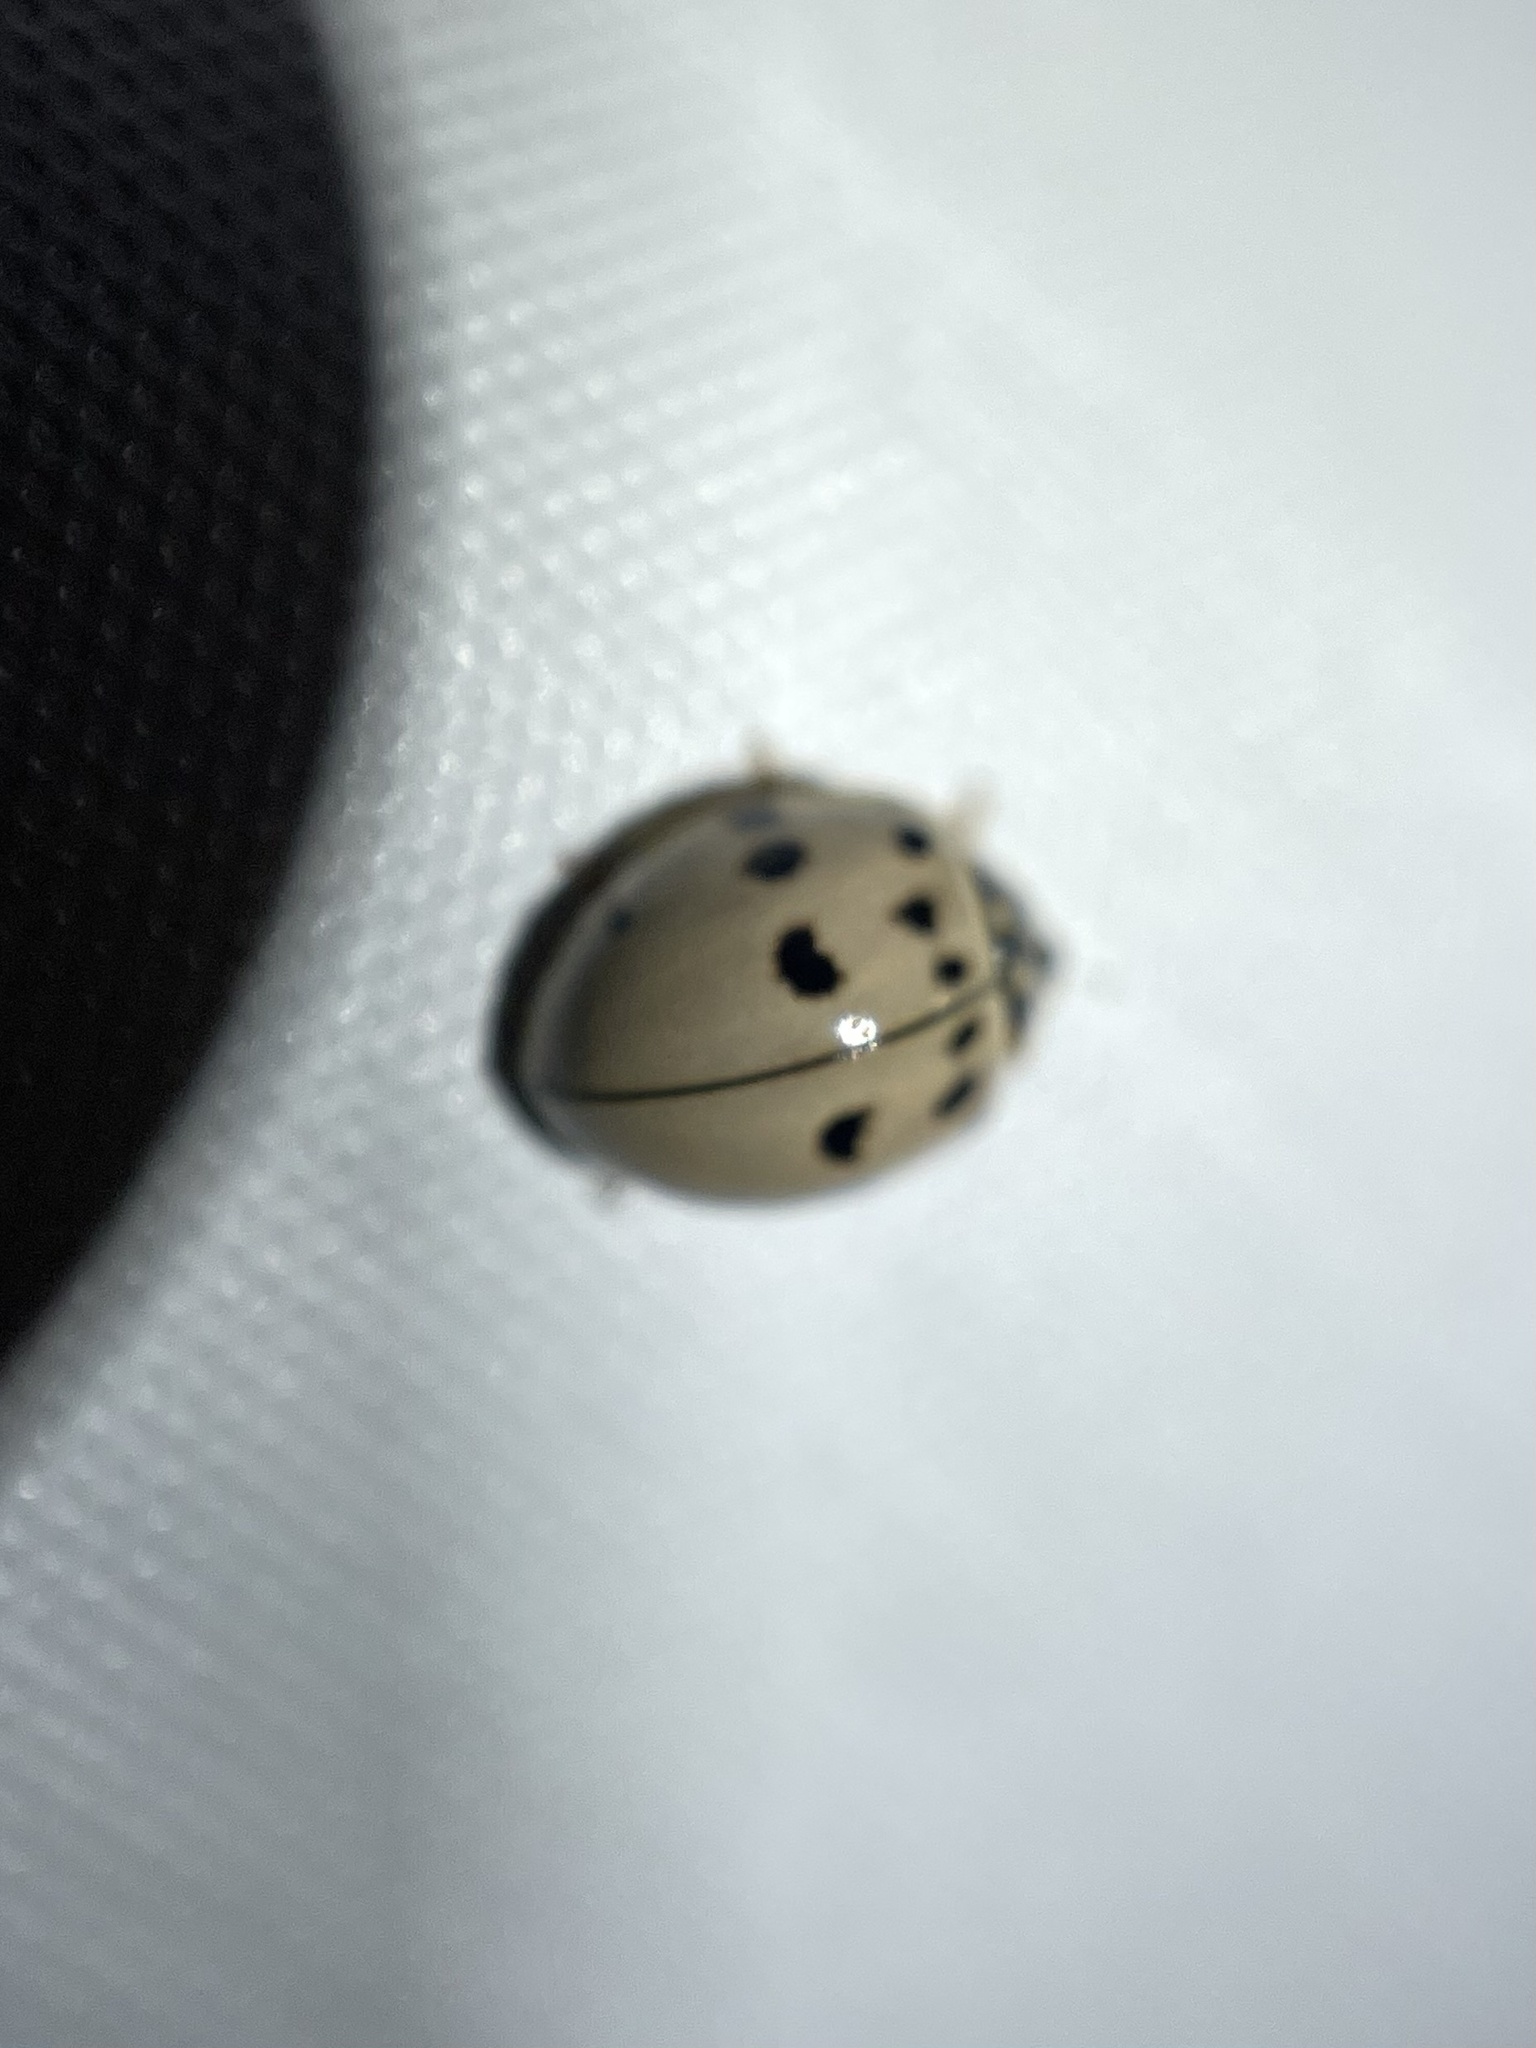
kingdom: Animalia
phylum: Arthropoda
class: Insecta
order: Coleoptera
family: Coccinellidae
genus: Olla
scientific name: Olla v-nigrum
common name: Ashy gray lady beetle
